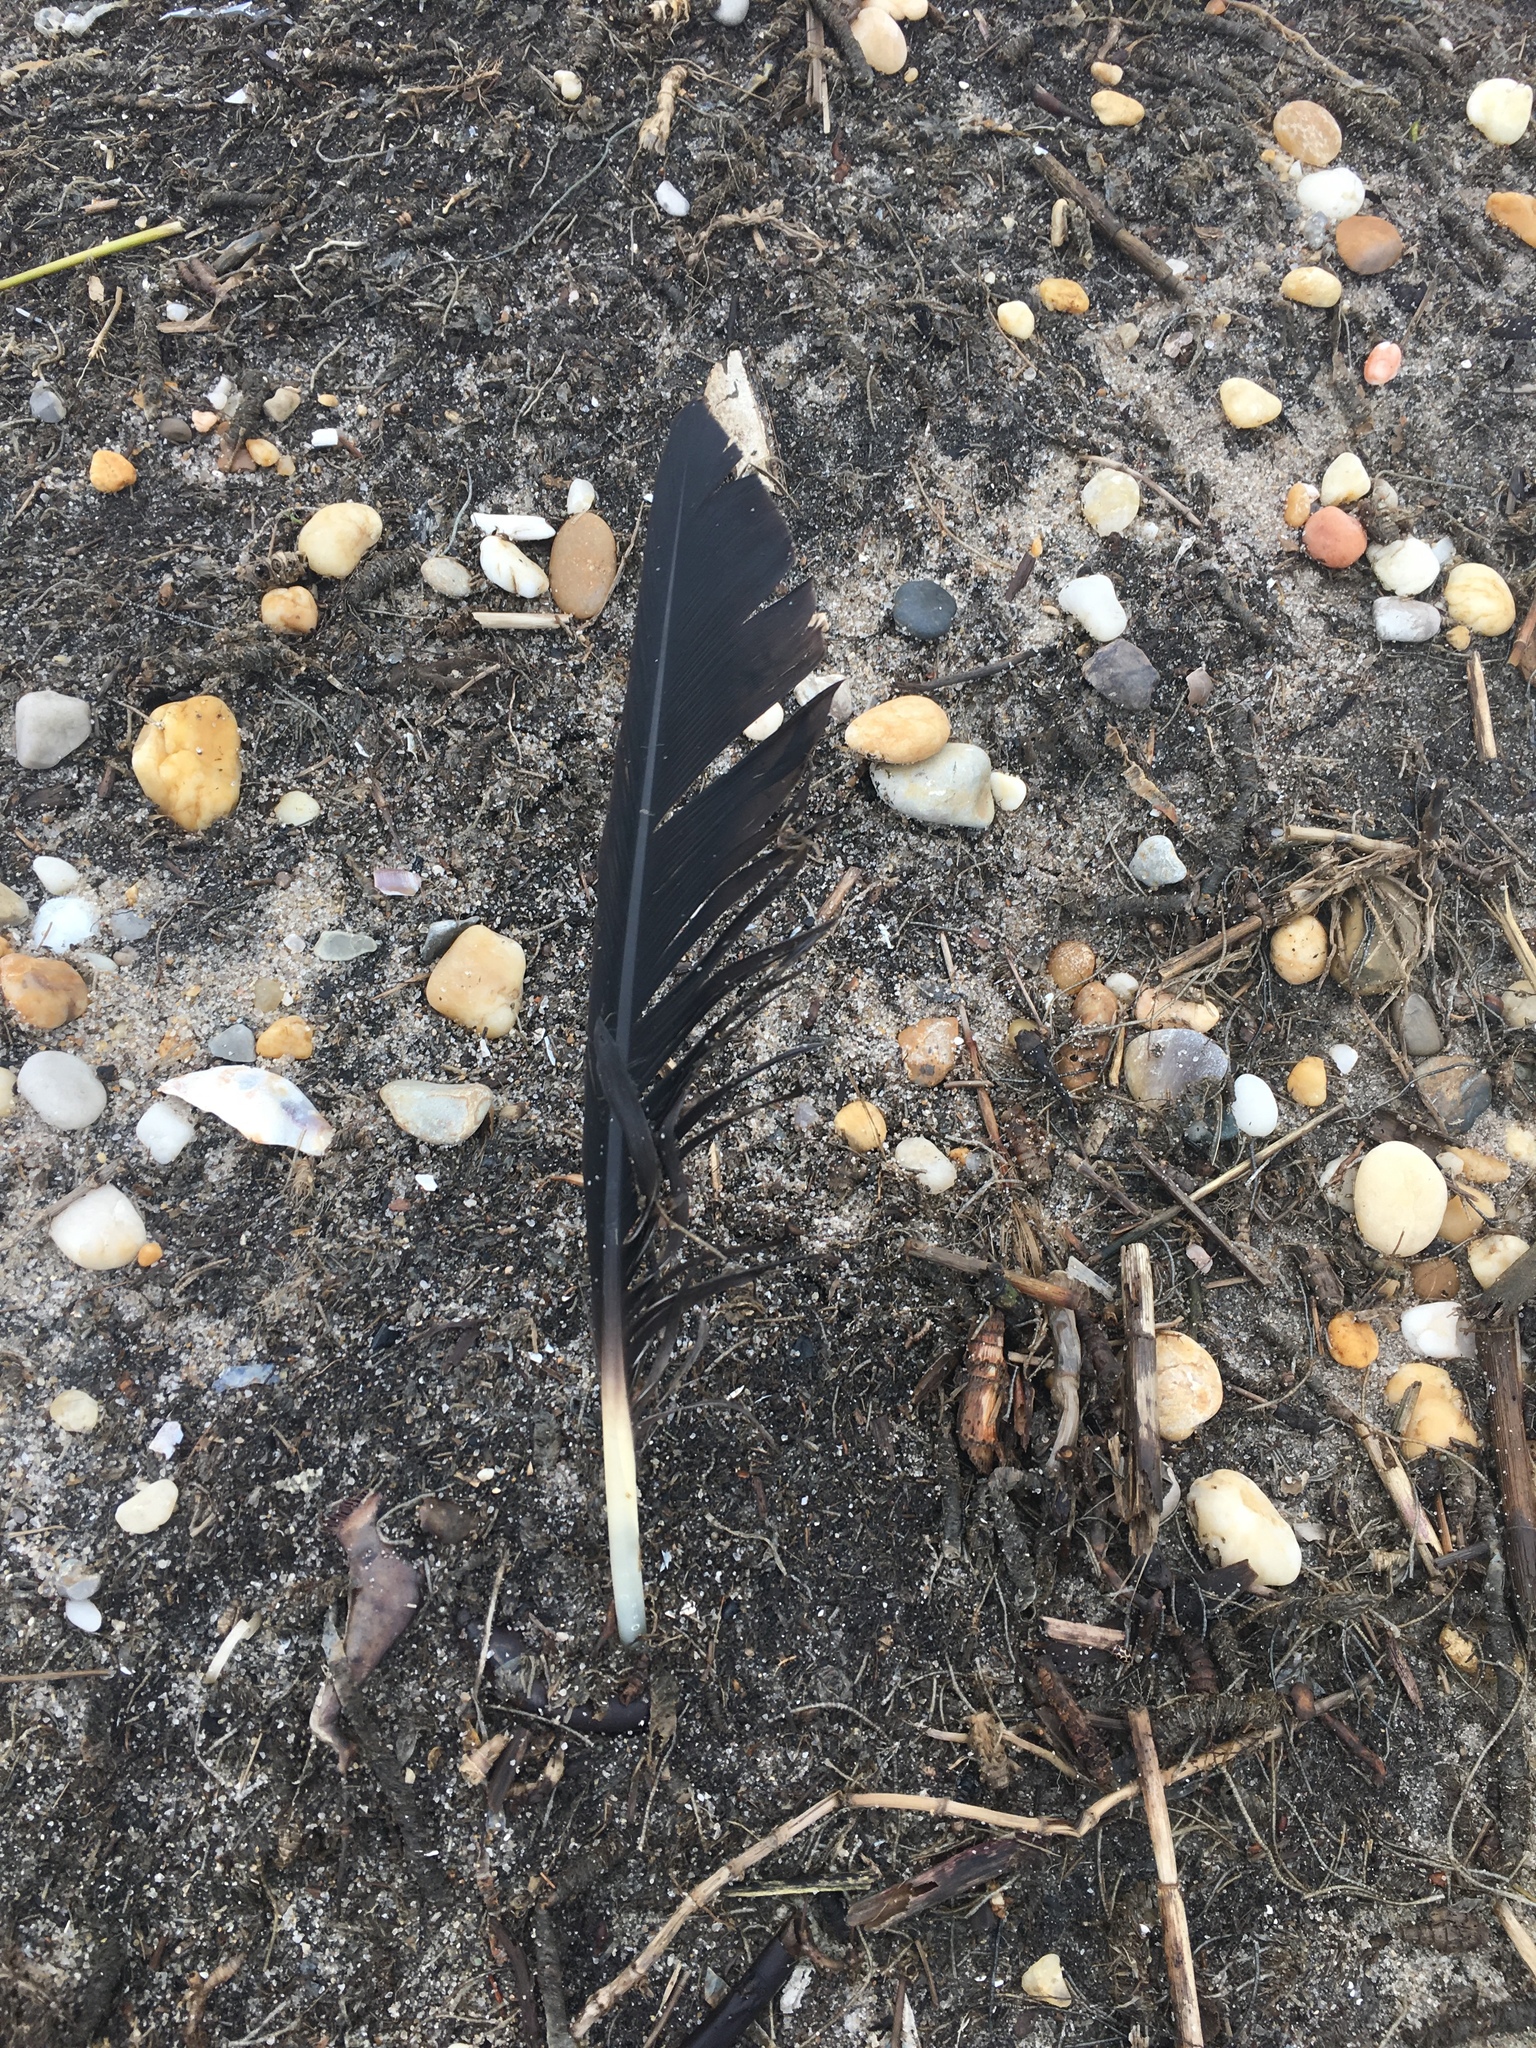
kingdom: Animalia
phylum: Chordata
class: Aves
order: Anseriformes
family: Anatidae
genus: Branta
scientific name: Branta canadensis
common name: Canada goose
